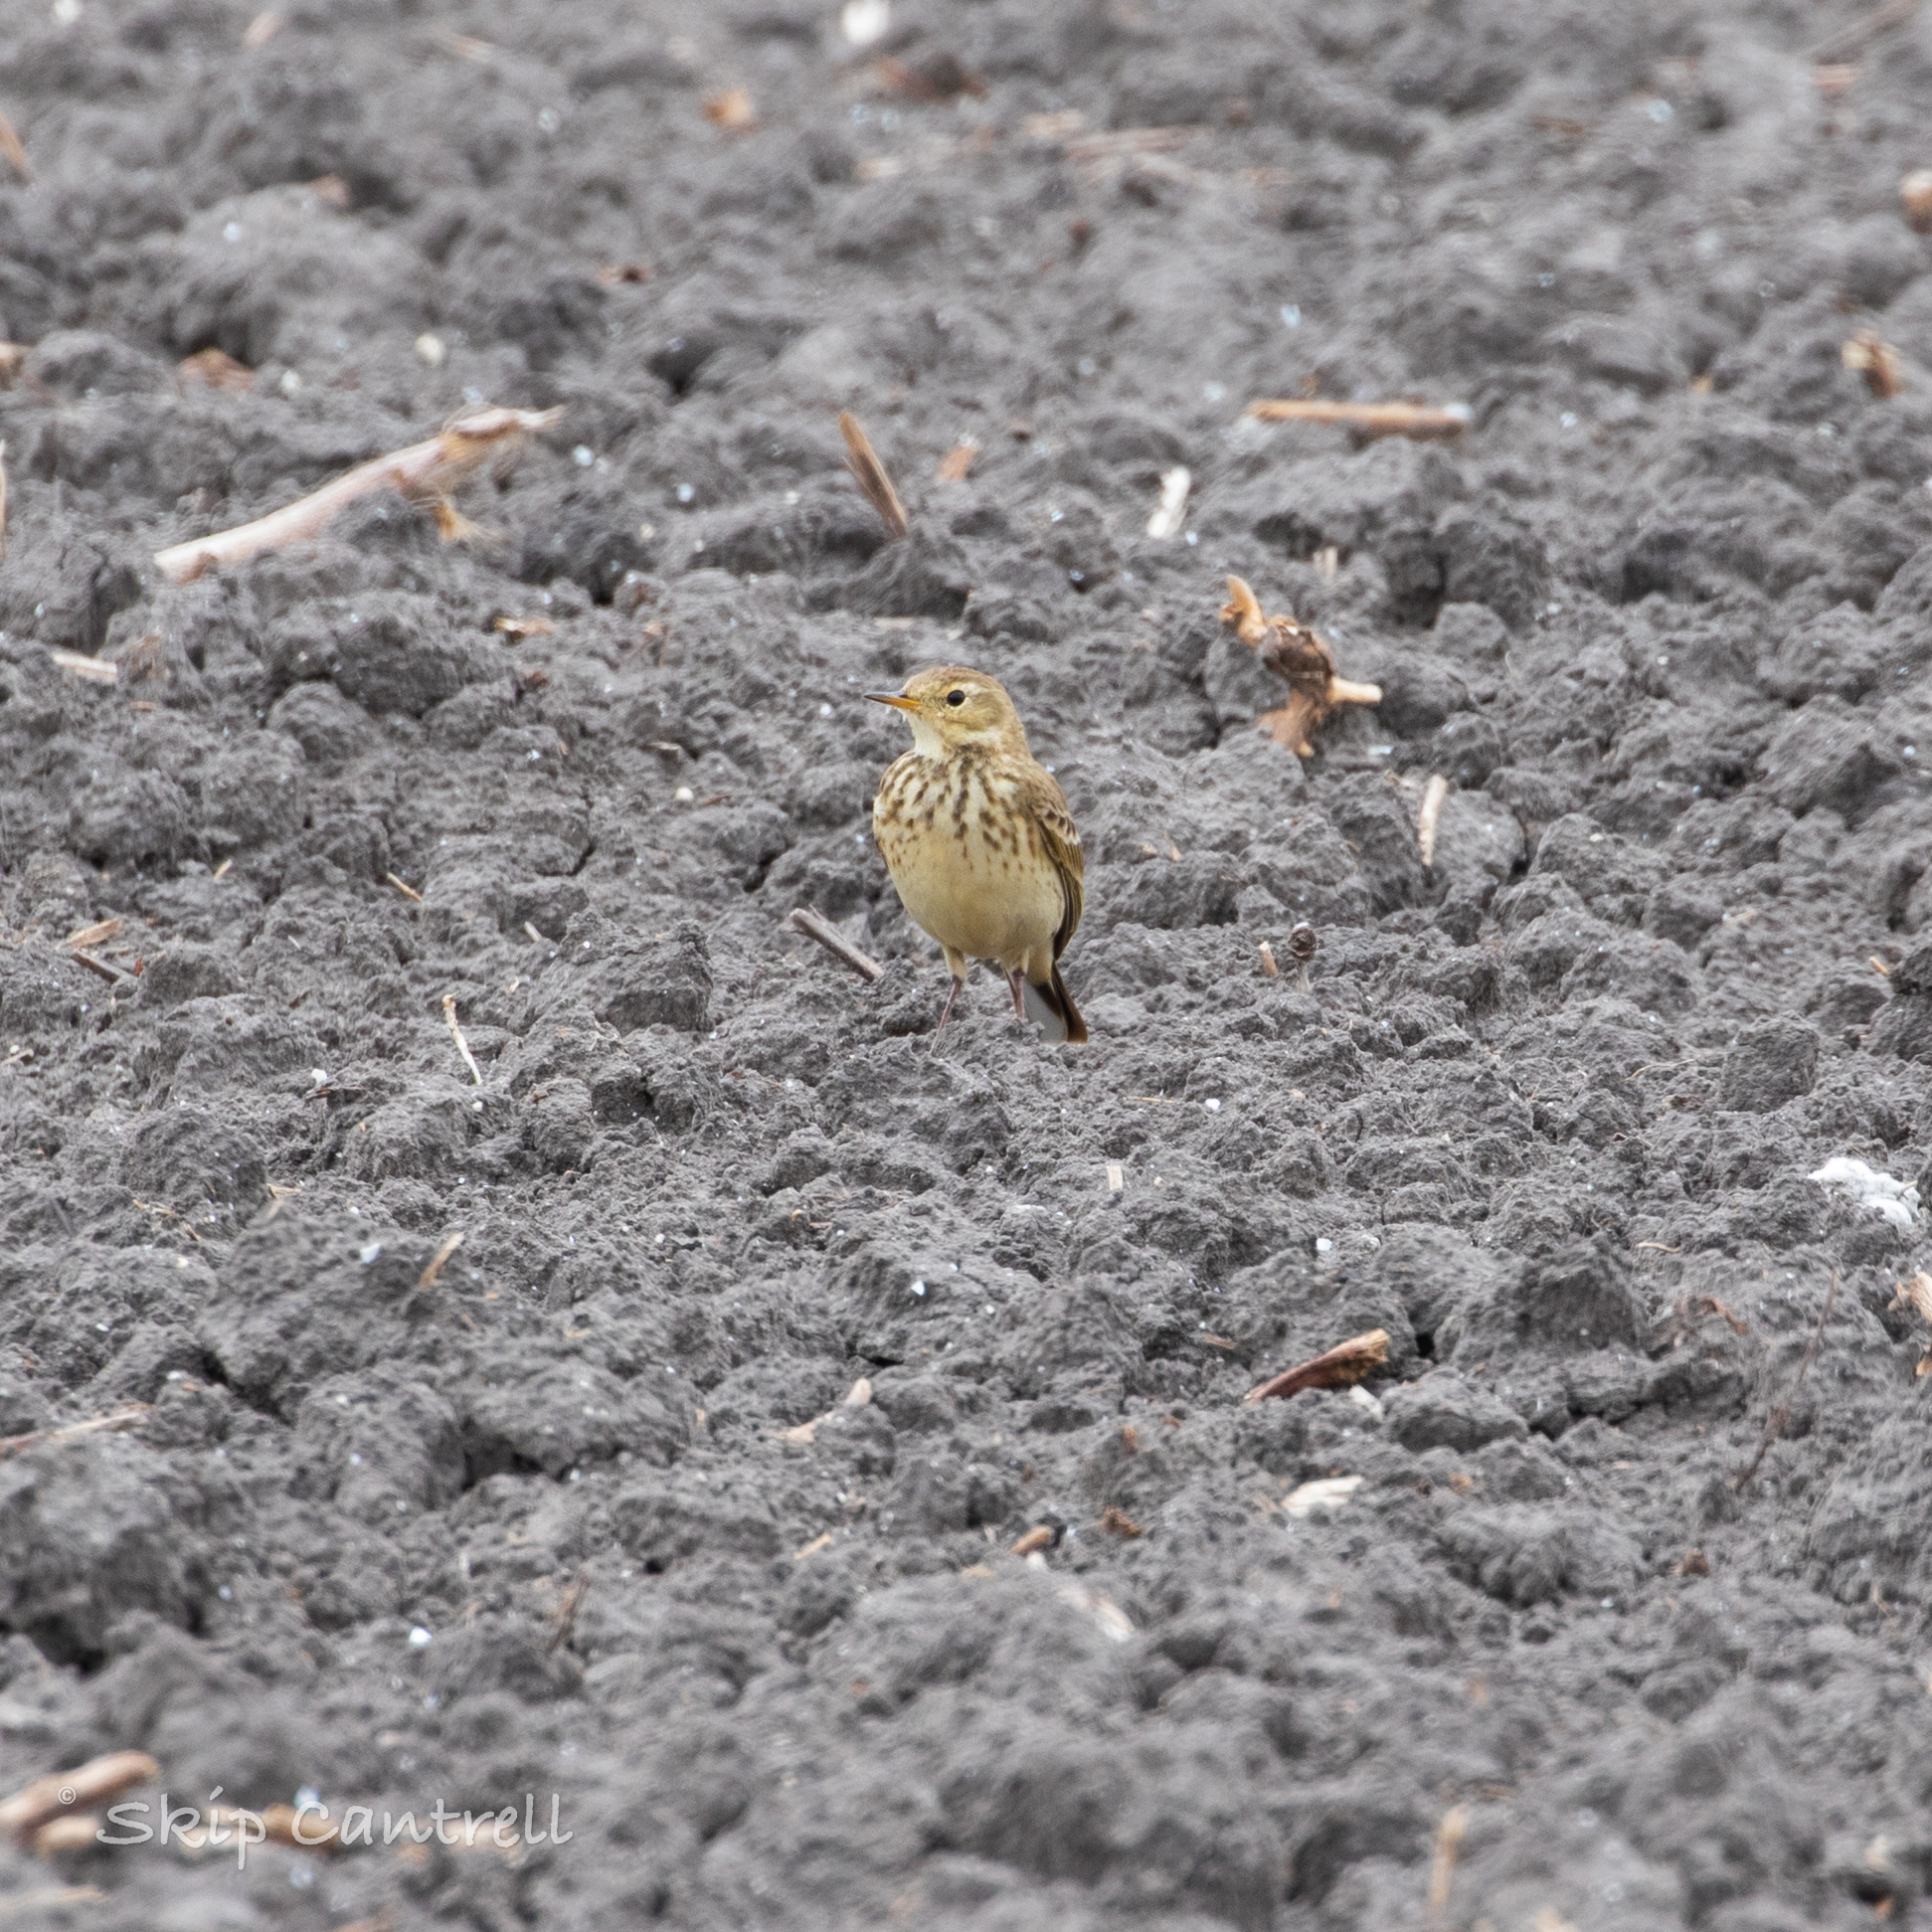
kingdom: Animalia
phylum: Chordata
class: Aves
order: Passeriformes
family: Motacillidae
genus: Anthus
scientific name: Anthus rubescens
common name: Buff-bellied pipit
